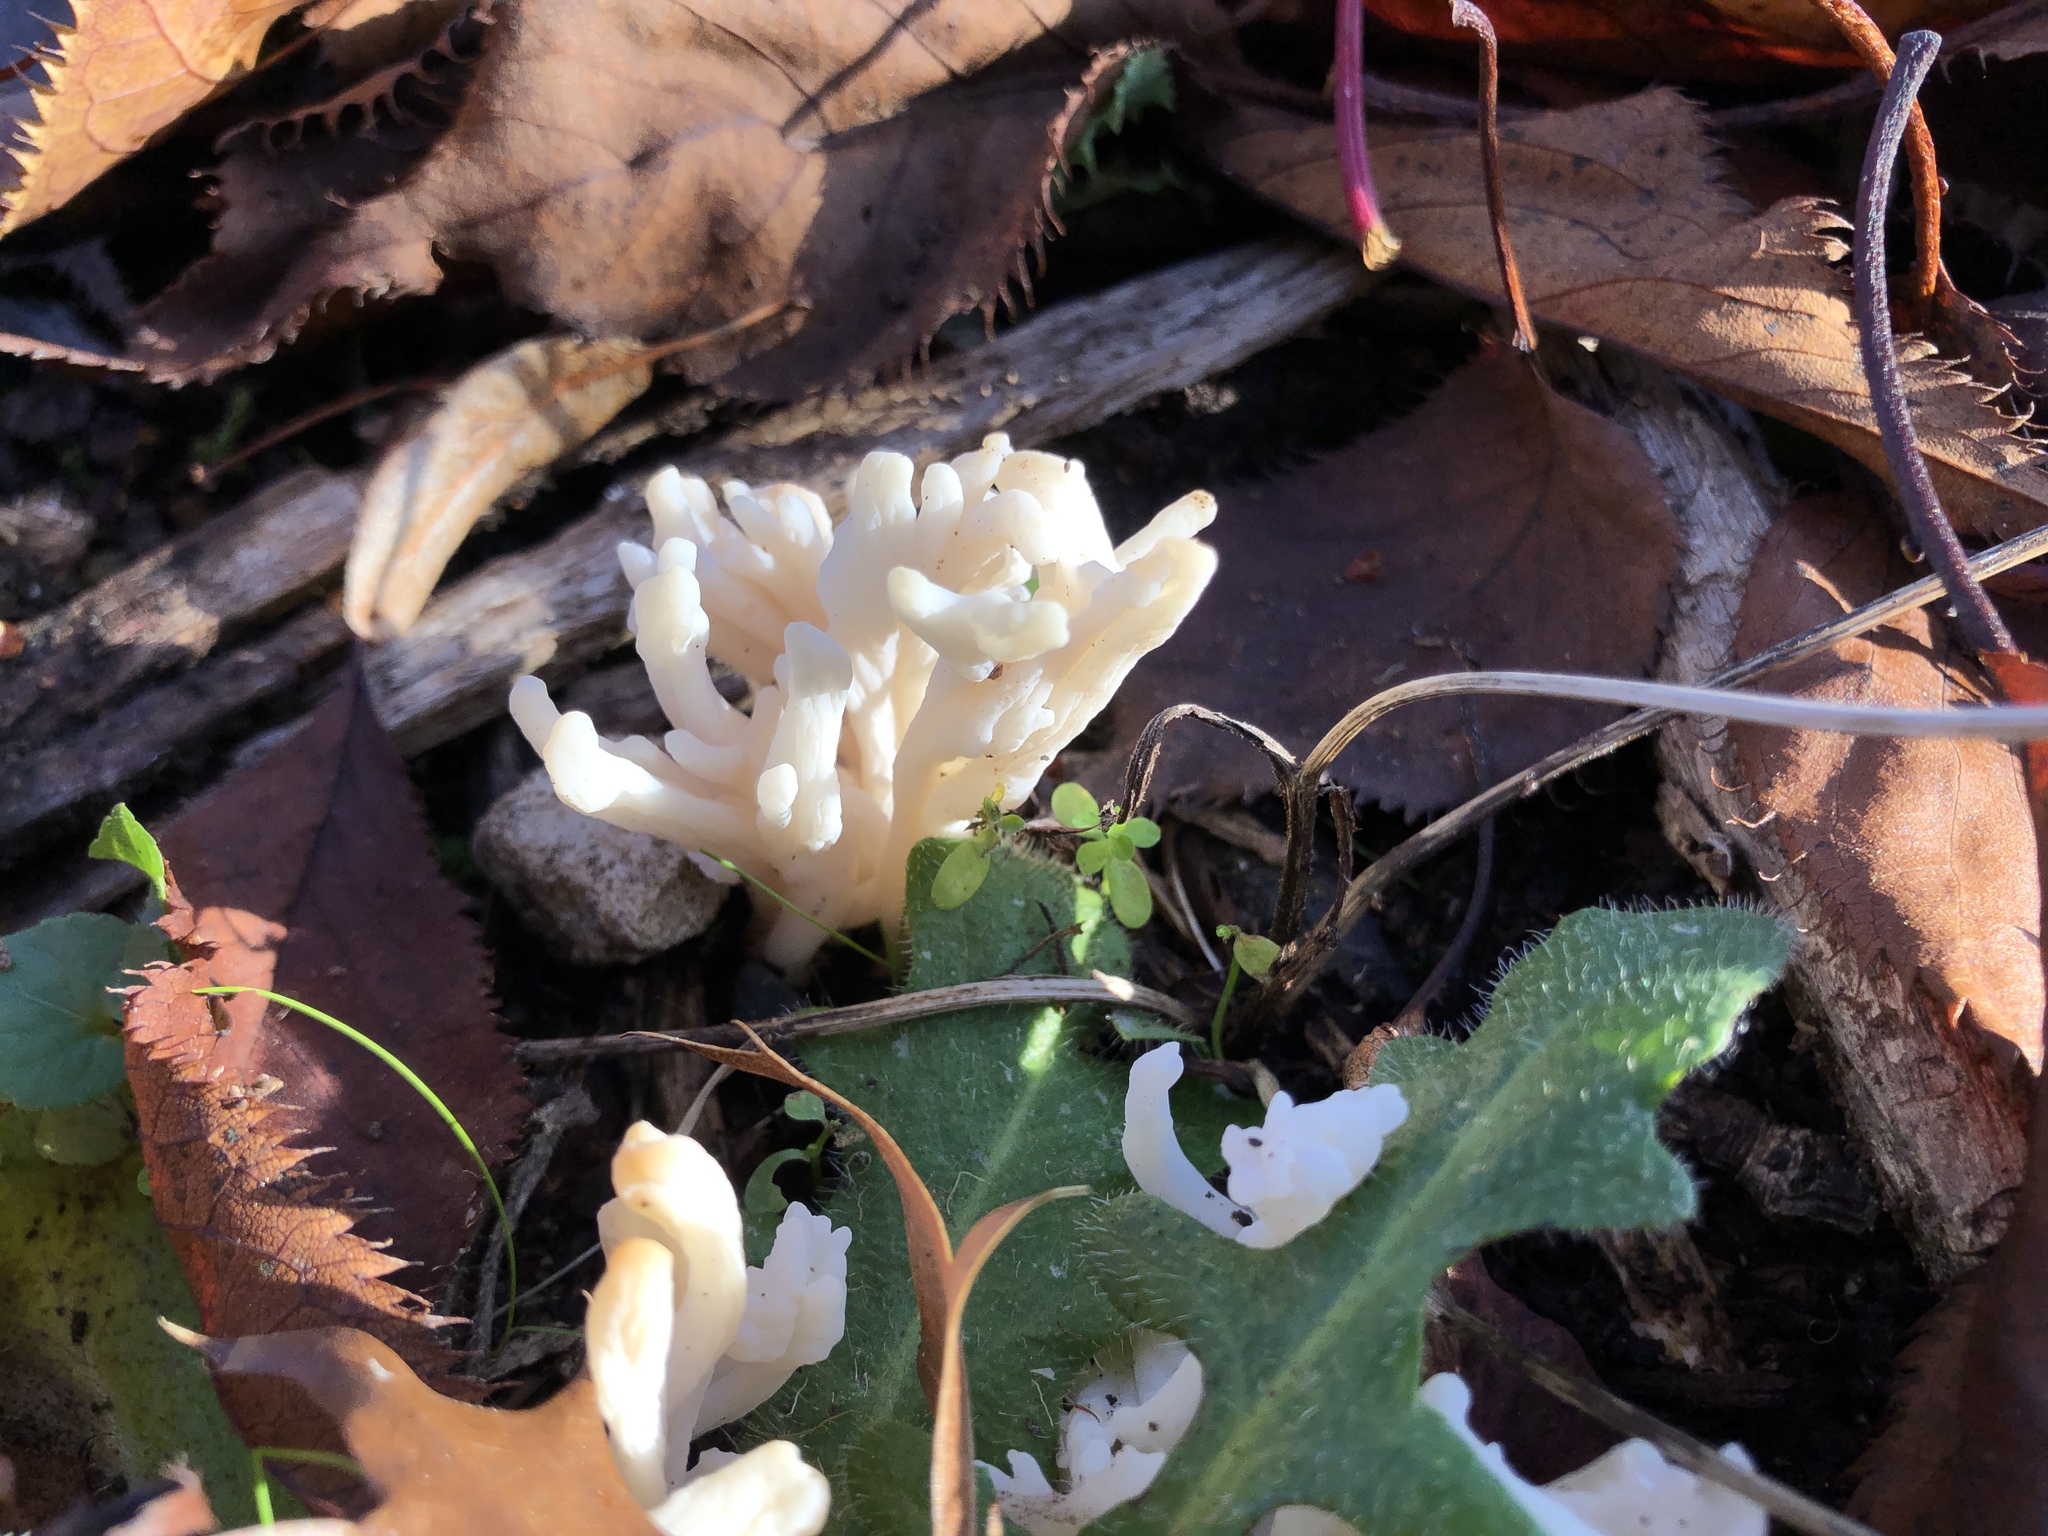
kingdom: Fungi
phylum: Basidiomycota
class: Agaricomycetes
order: Cantharellales
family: Hydnaceae
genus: Clavulina
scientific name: Clavulina rugosa
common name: Wrinkled club
